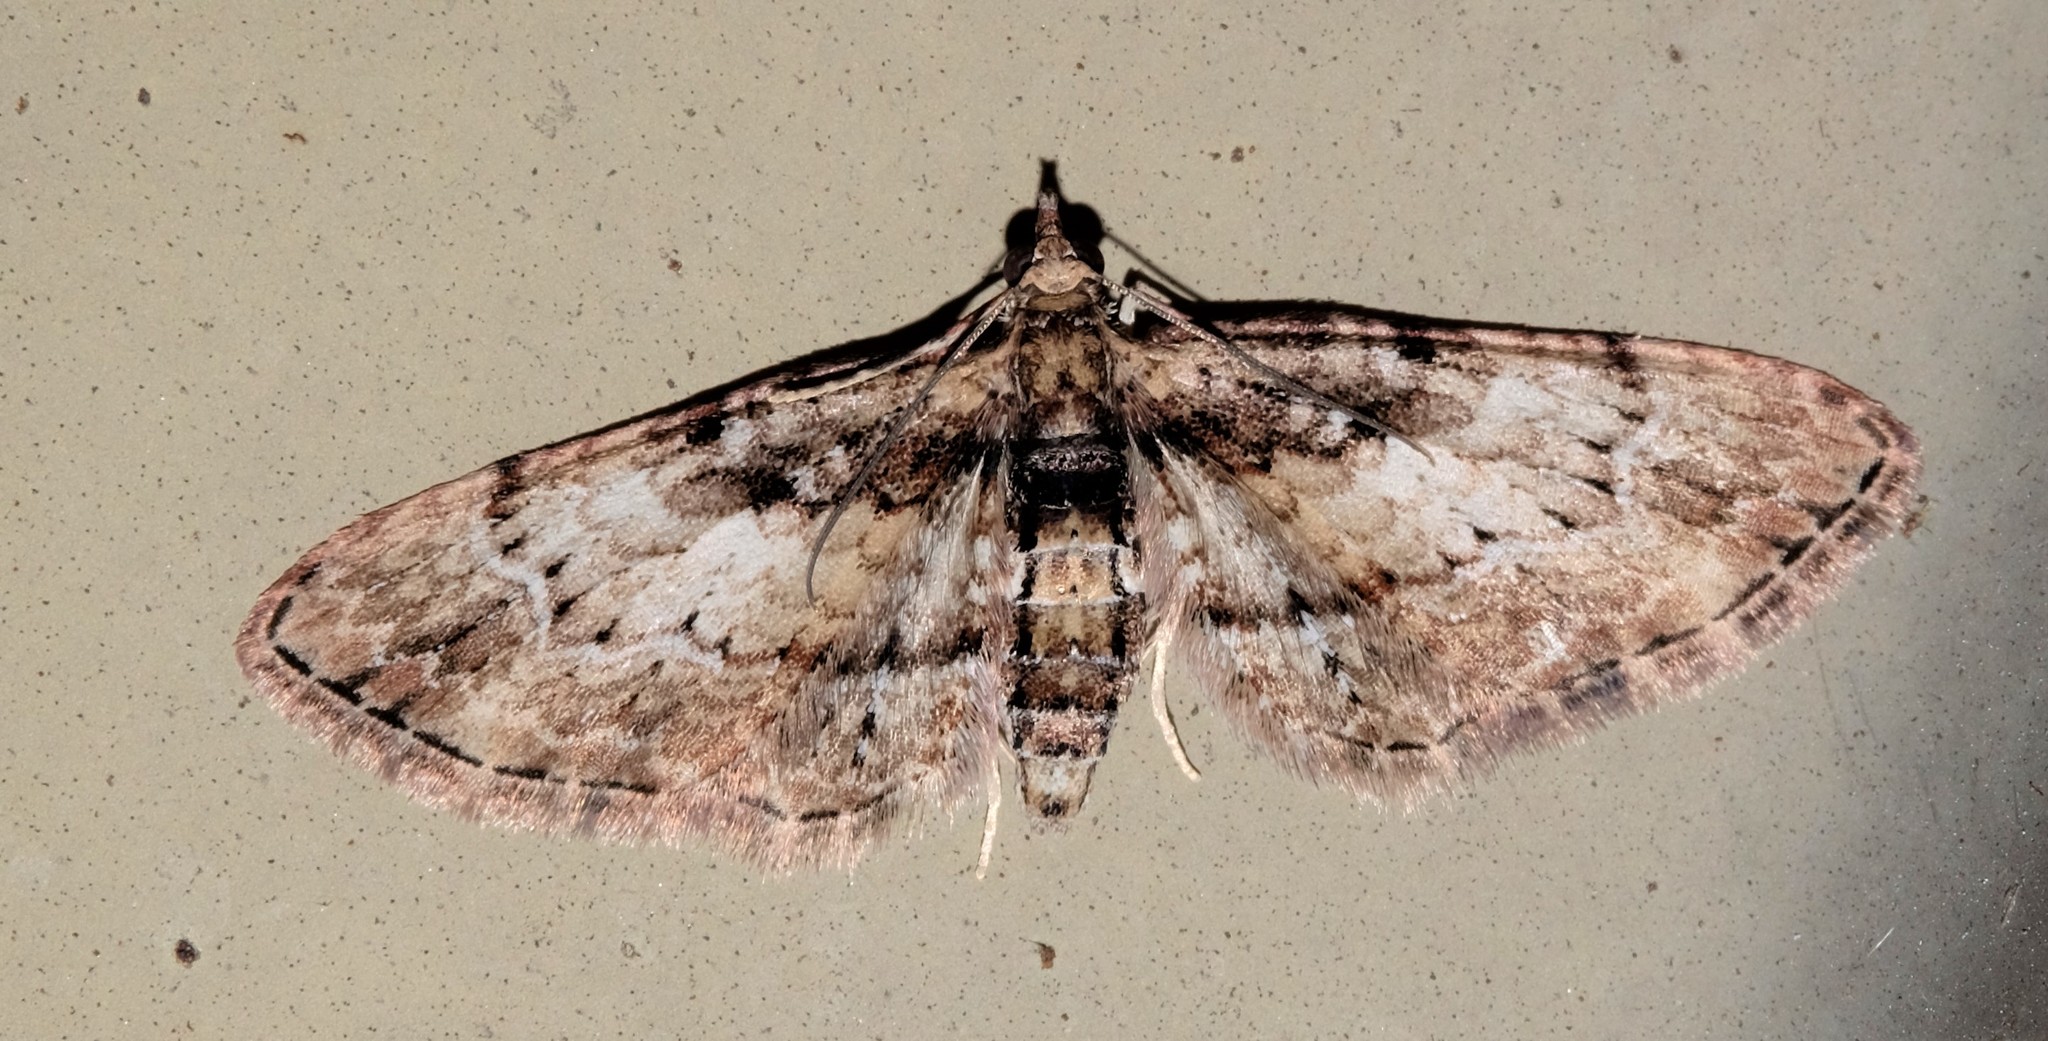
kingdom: Animalia
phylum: Arthropoda
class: Insecta
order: Lepidoptera
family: Geometridae
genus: Chloroclystis
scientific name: Chloroclystis approximata
